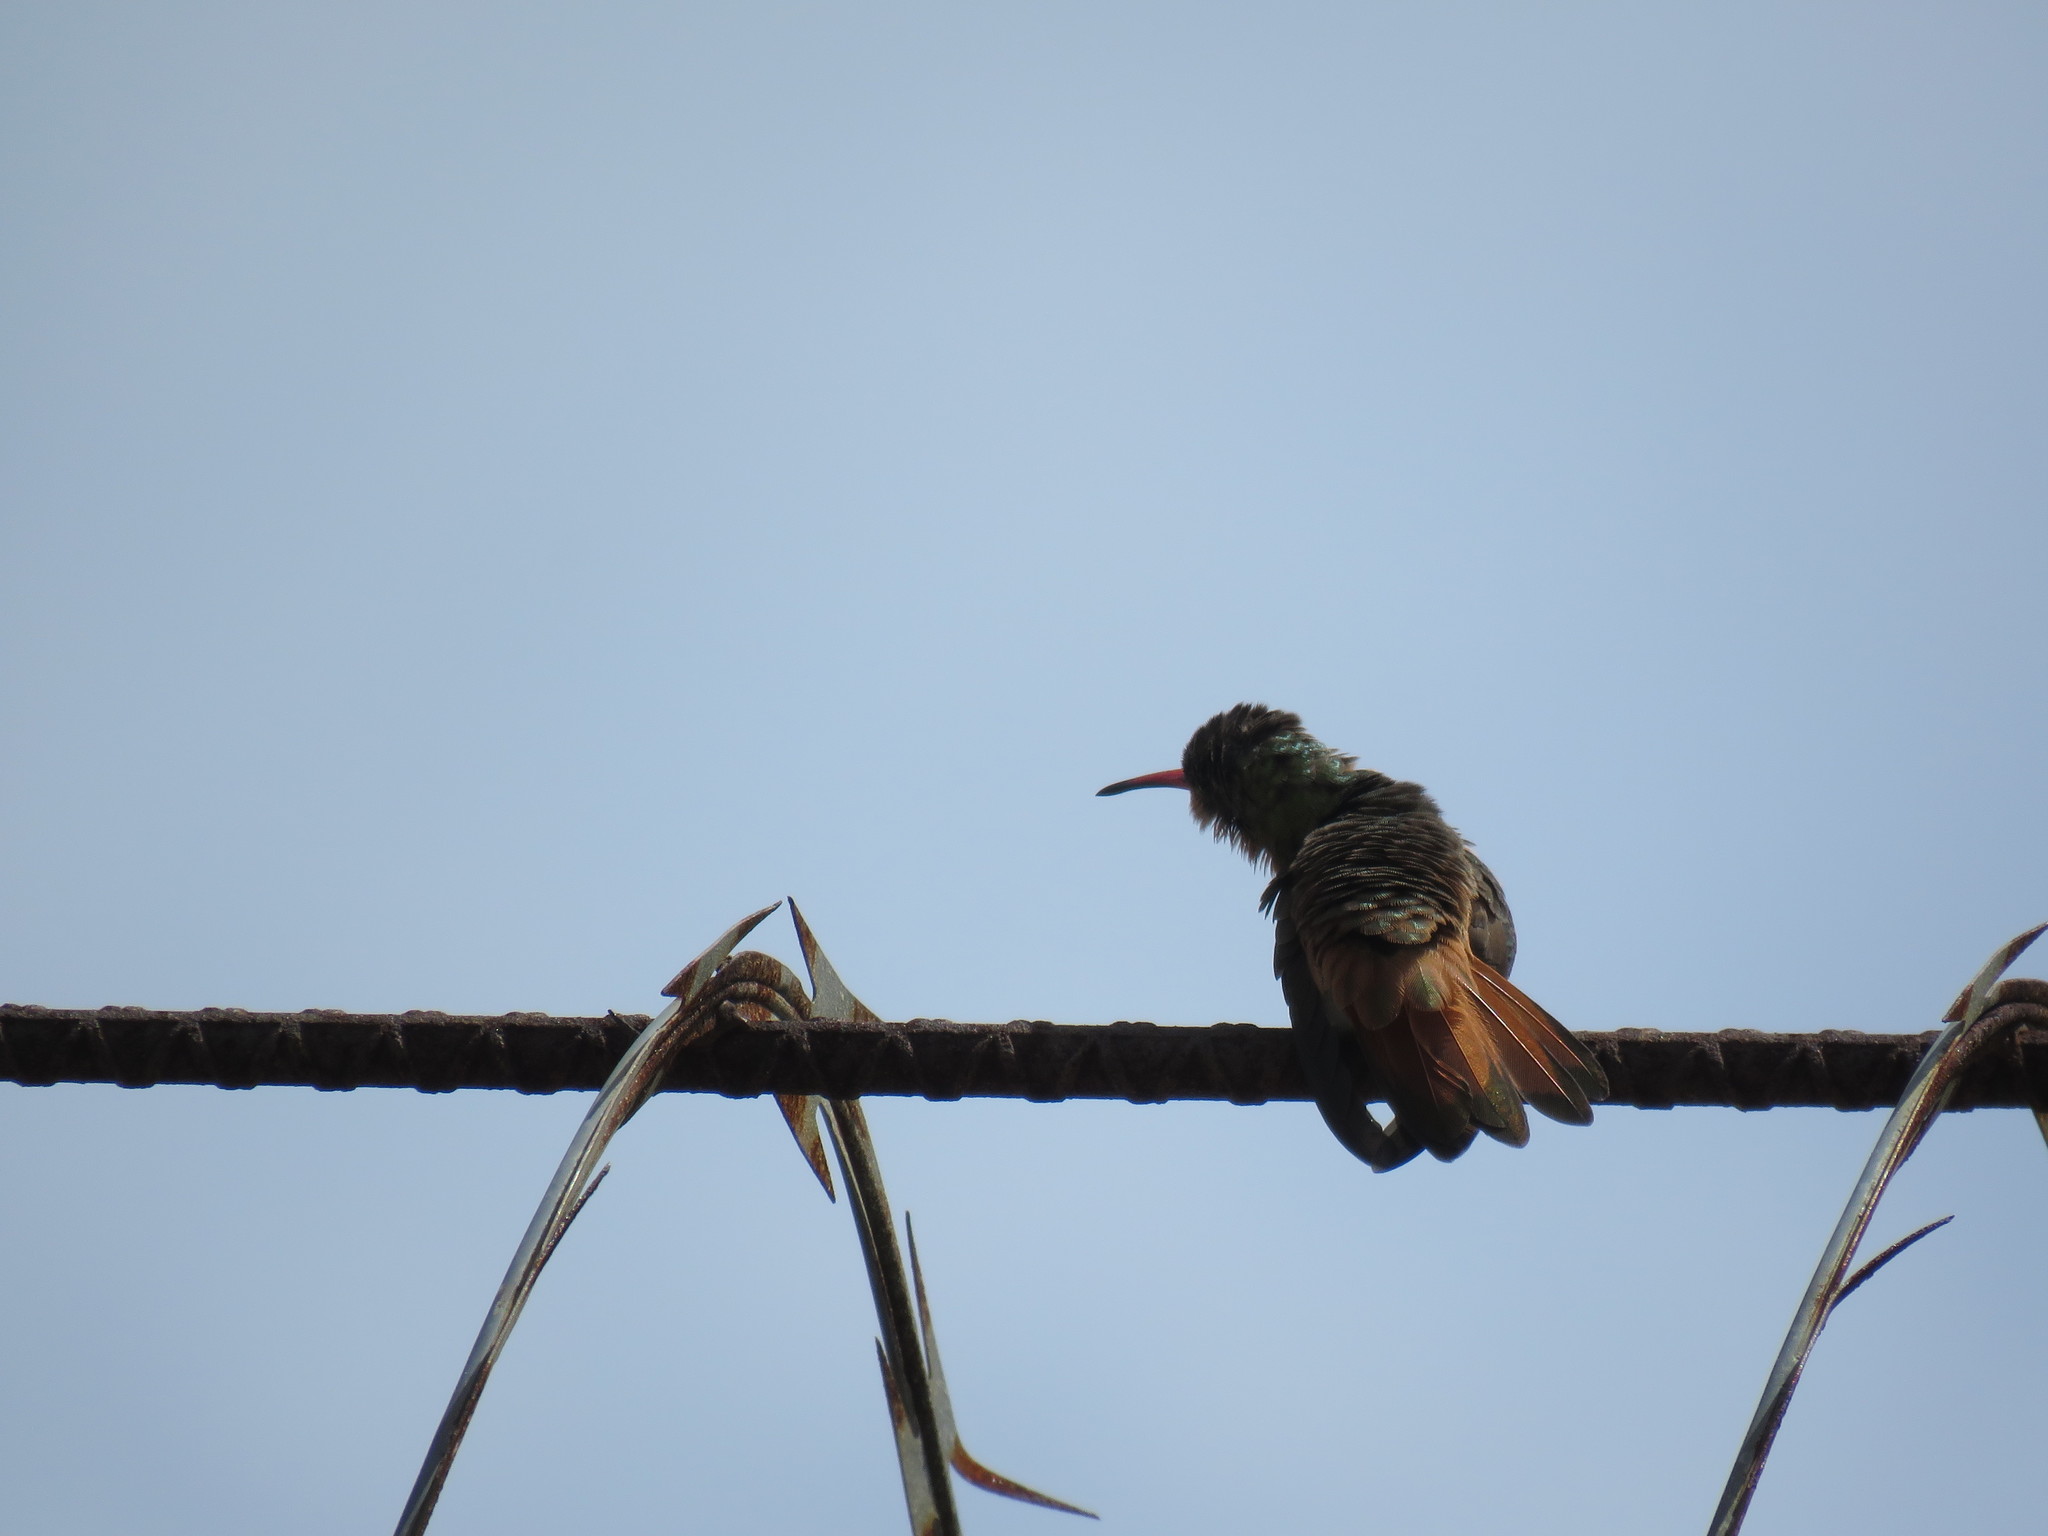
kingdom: Animalia
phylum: Chordata
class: Aves
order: Apodiformes
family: Trochilidae
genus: Amazilia
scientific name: Amazilia rutila
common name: Cinnamon hummingbird
